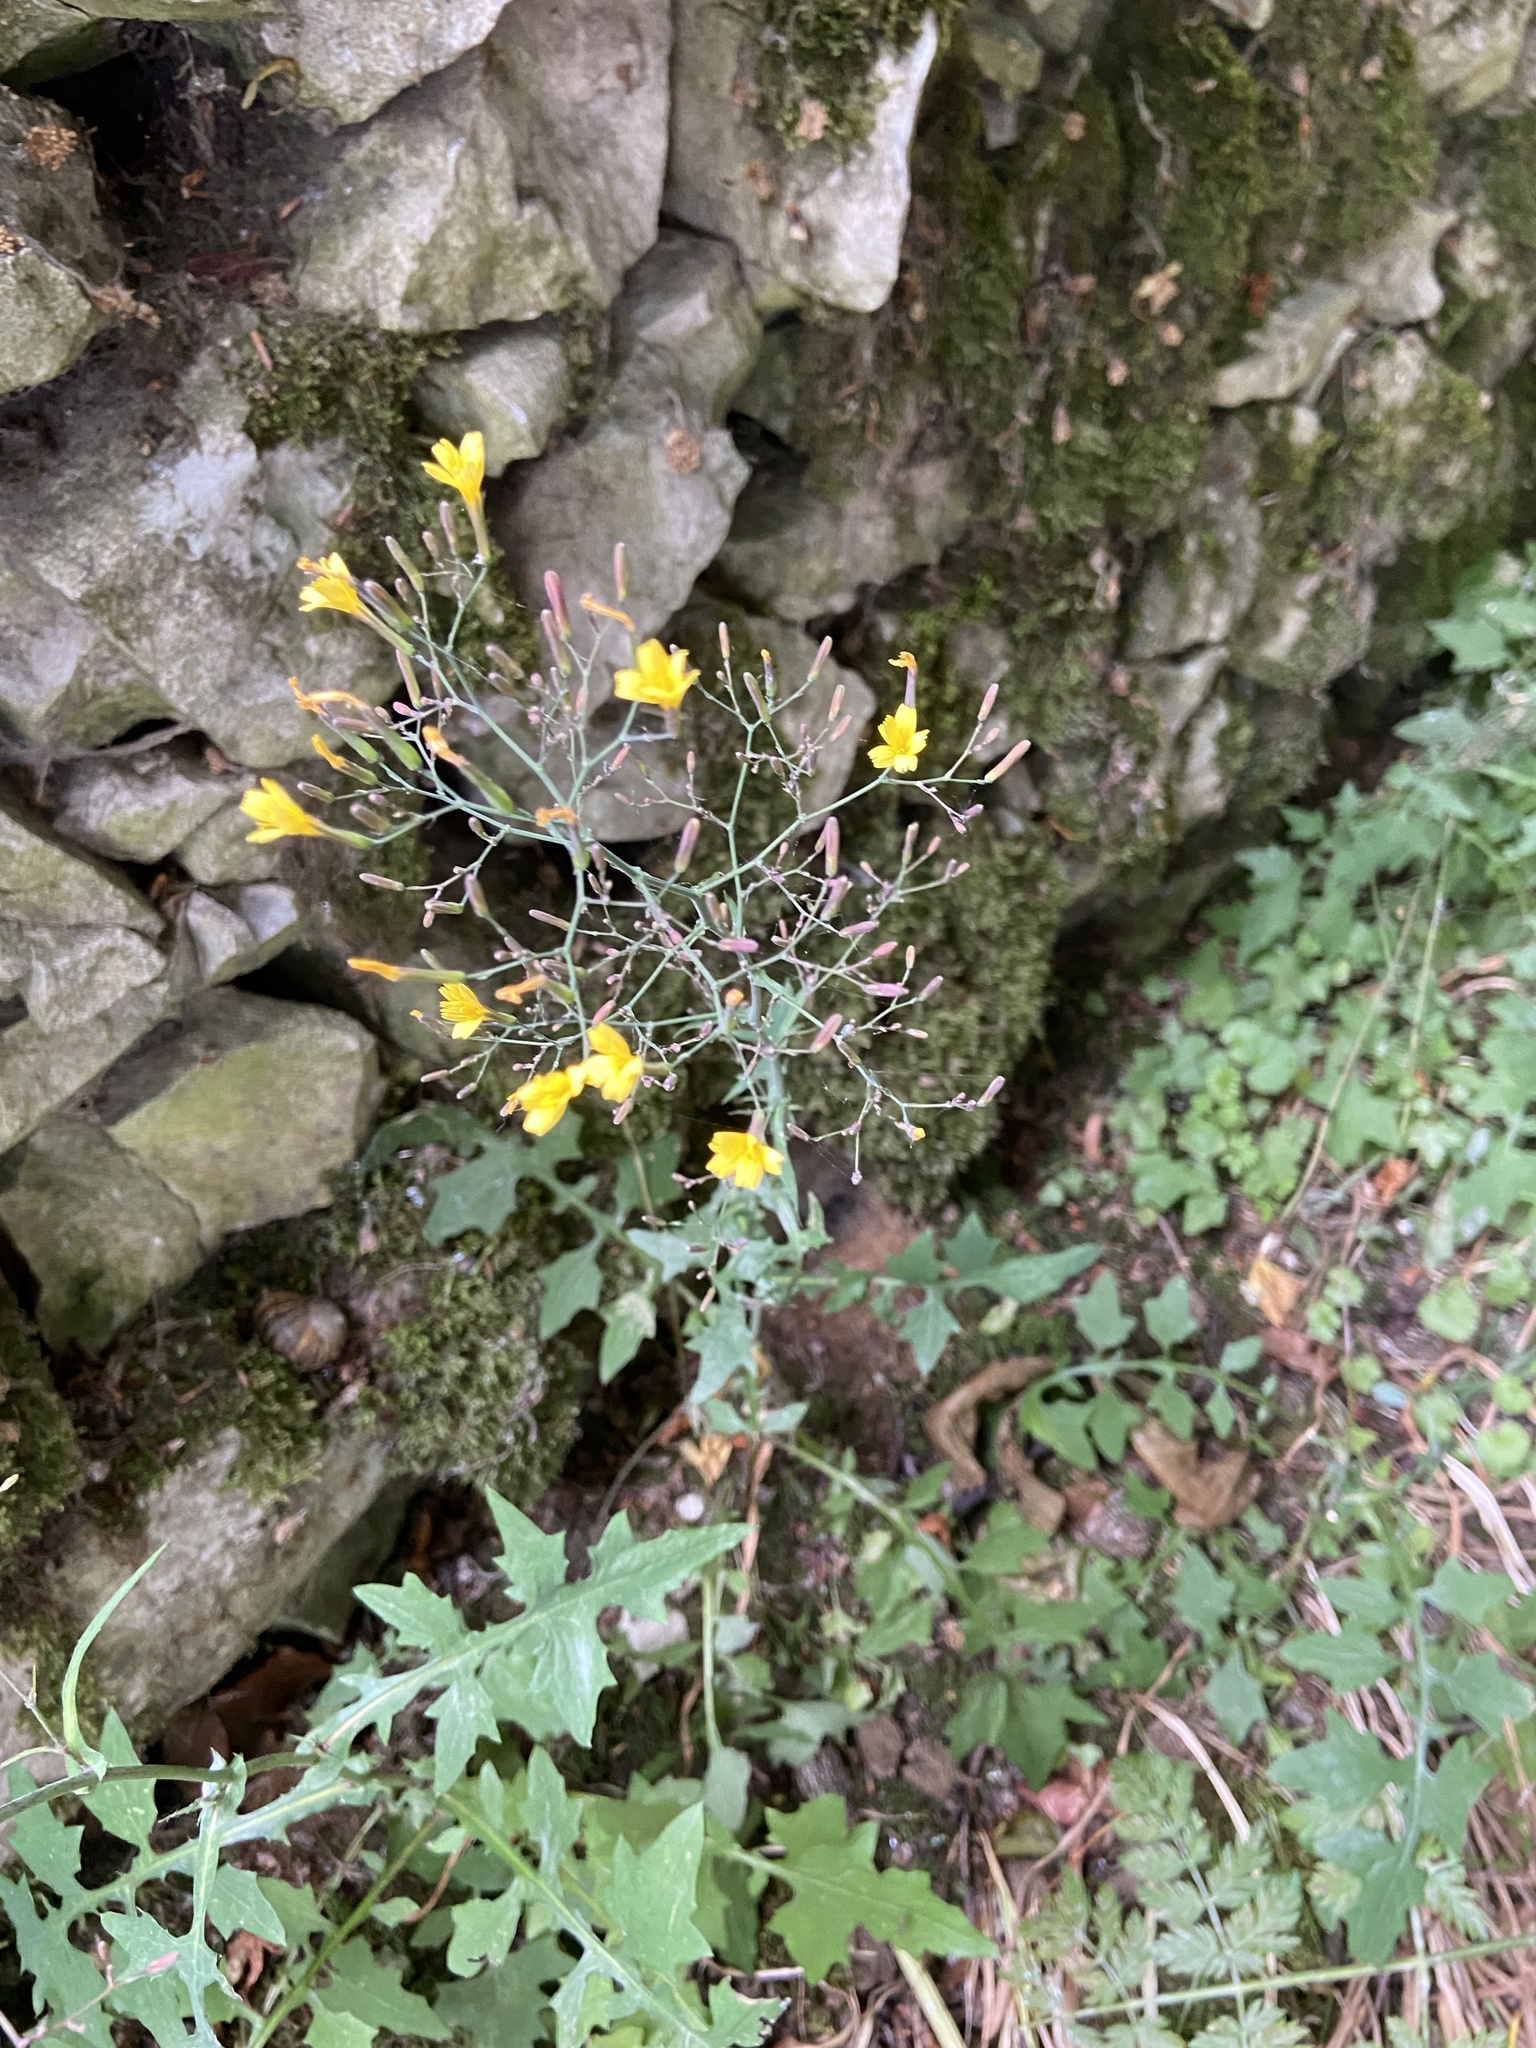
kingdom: Plantae
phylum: Tracheophyta
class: Magnoliopsida
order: Asterales
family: Asteraceae
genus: Mycelis
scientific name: Mycelis muralis
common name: Wall lettuce
